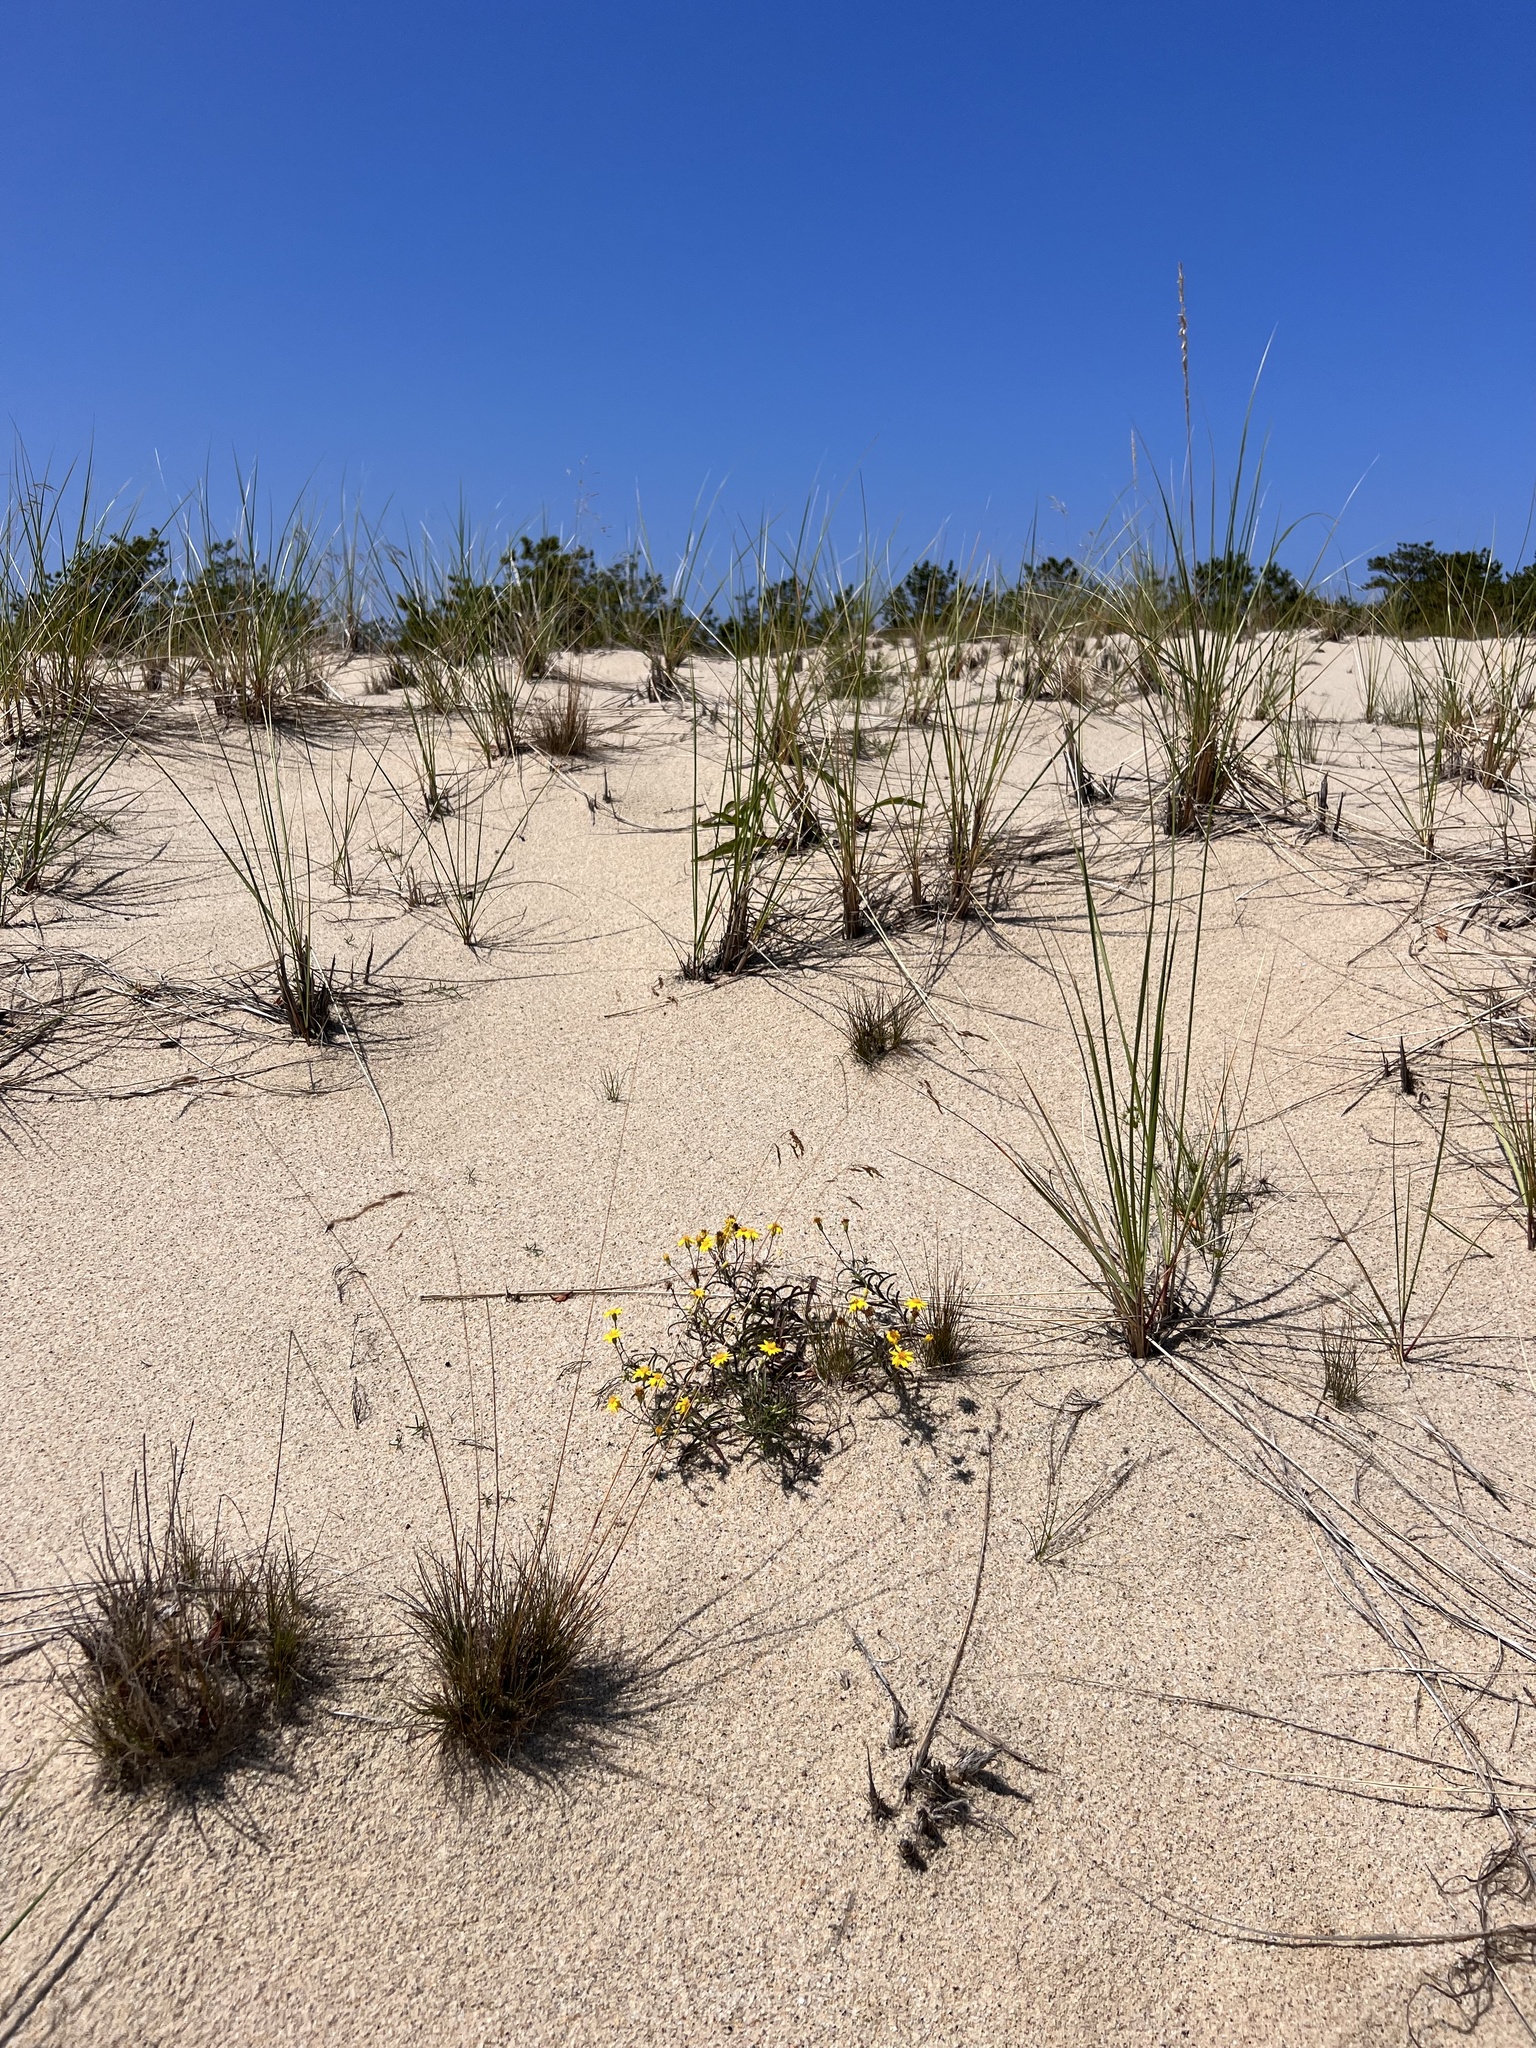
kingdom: Plantae
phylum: Tracheophyta
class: Magnoliopsida
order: Asterales
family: Asteraceae
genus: Pityopsis
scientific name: Pityopsis falcata
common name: Sickle-leaved goldenaster
